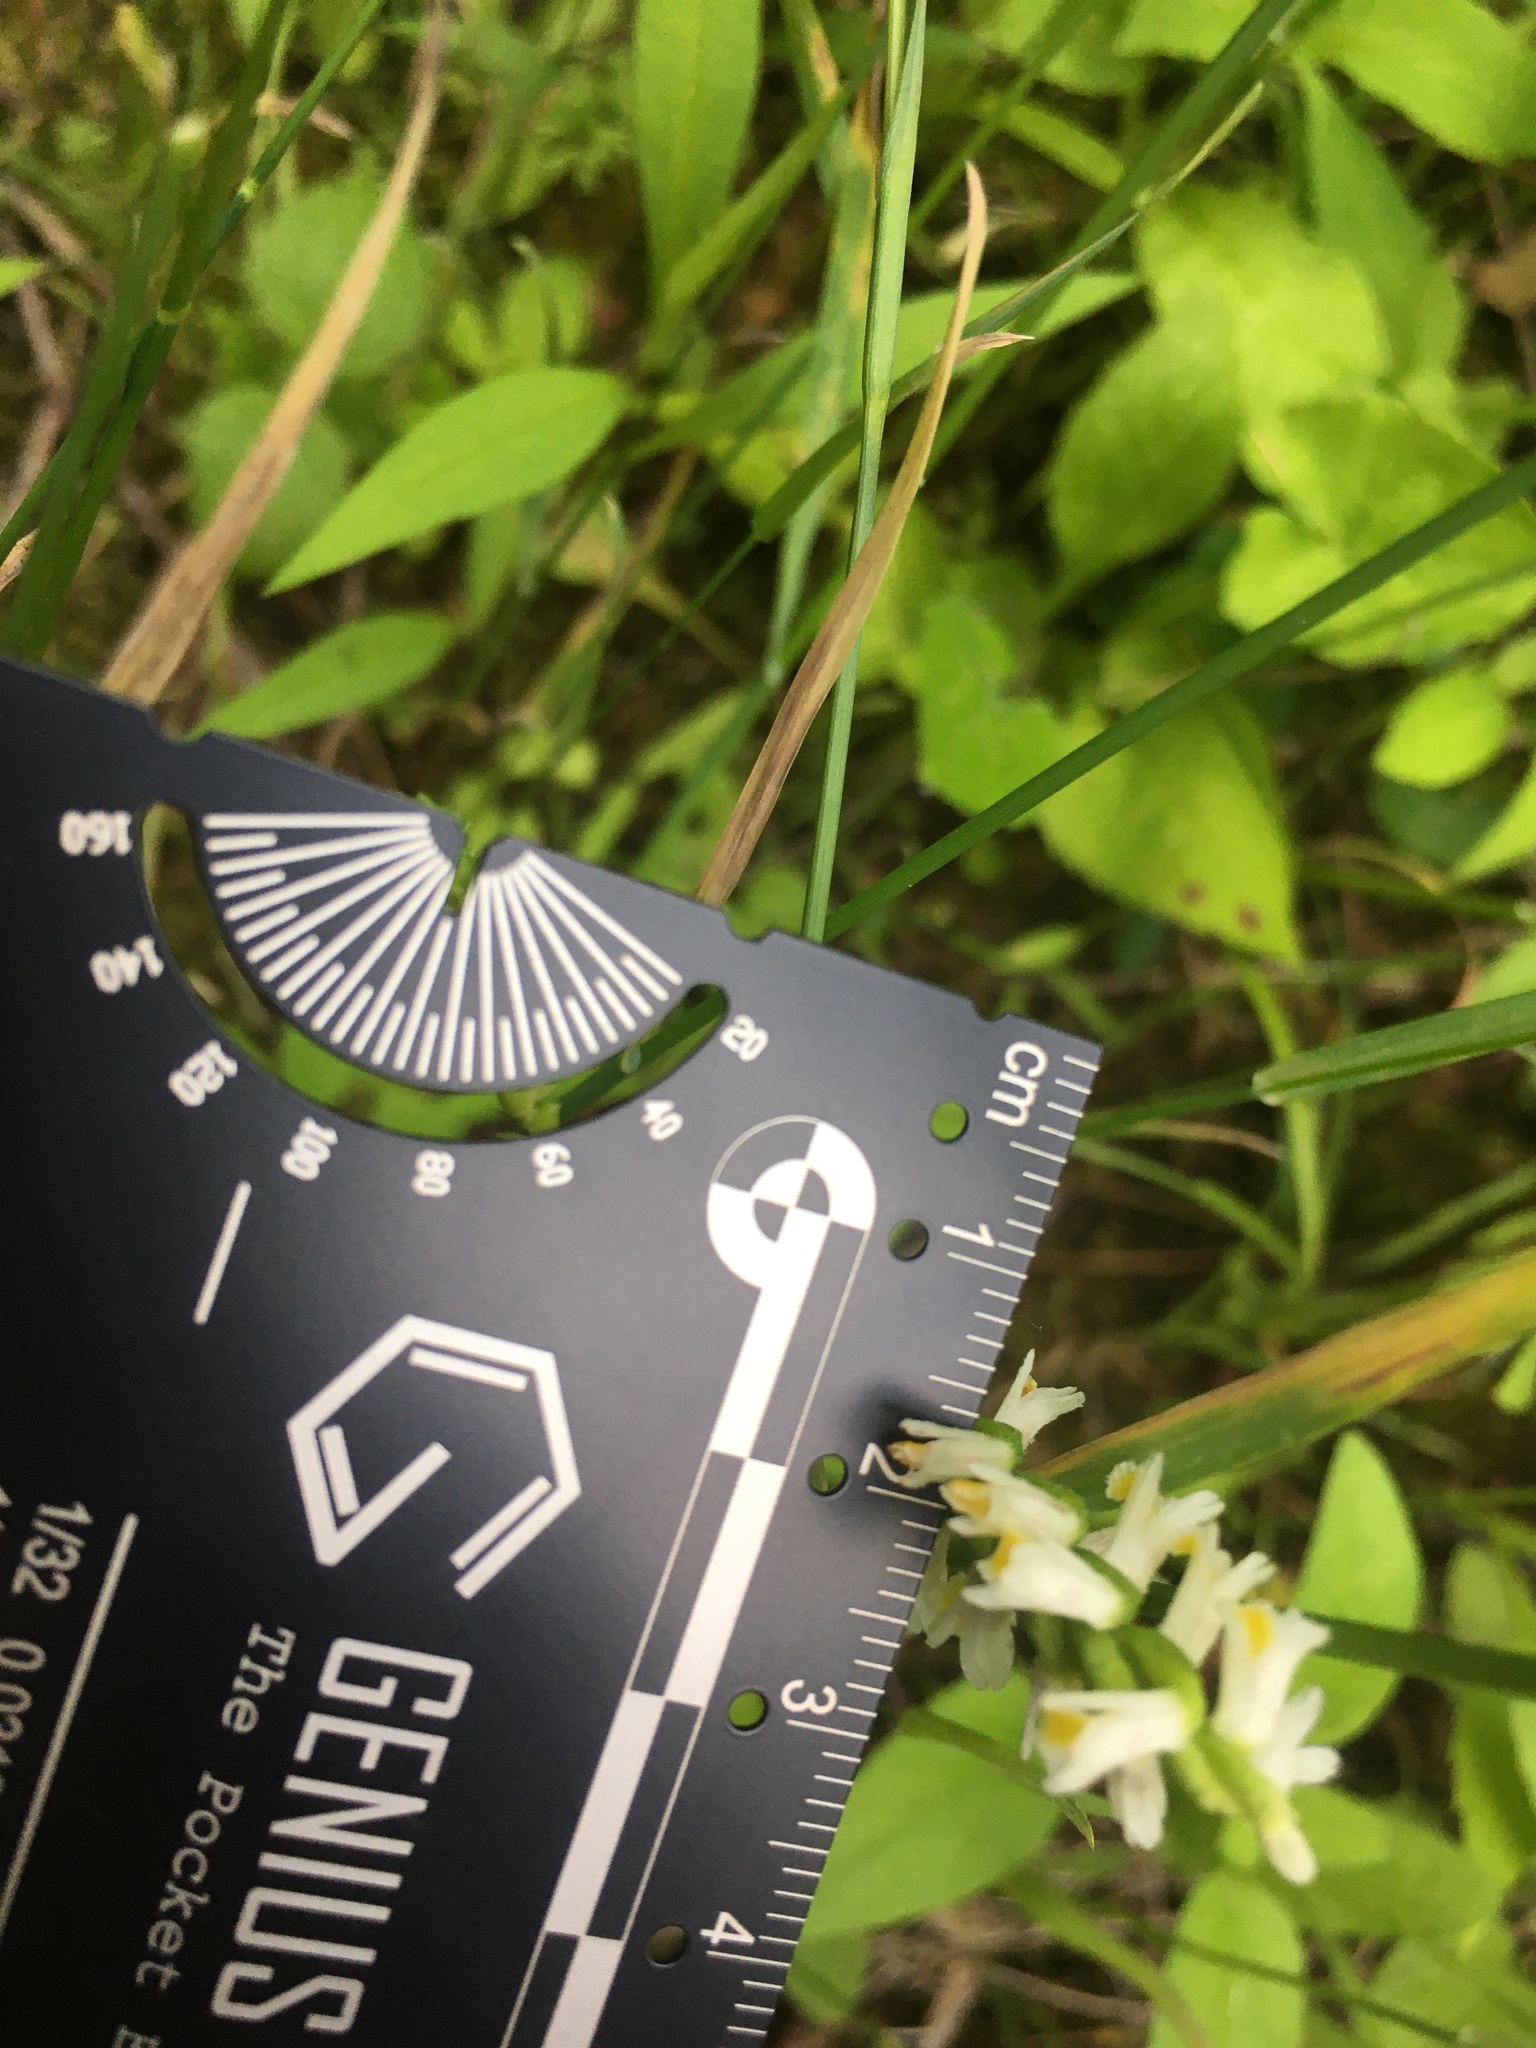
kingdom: Plantae
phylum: Tracheophyta
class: Liliopsida
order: Asparagales
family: Orchidaceae
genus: Spiranthes
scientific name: Spiranthes lucida
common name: Broad-leaved ladies'-tresses
